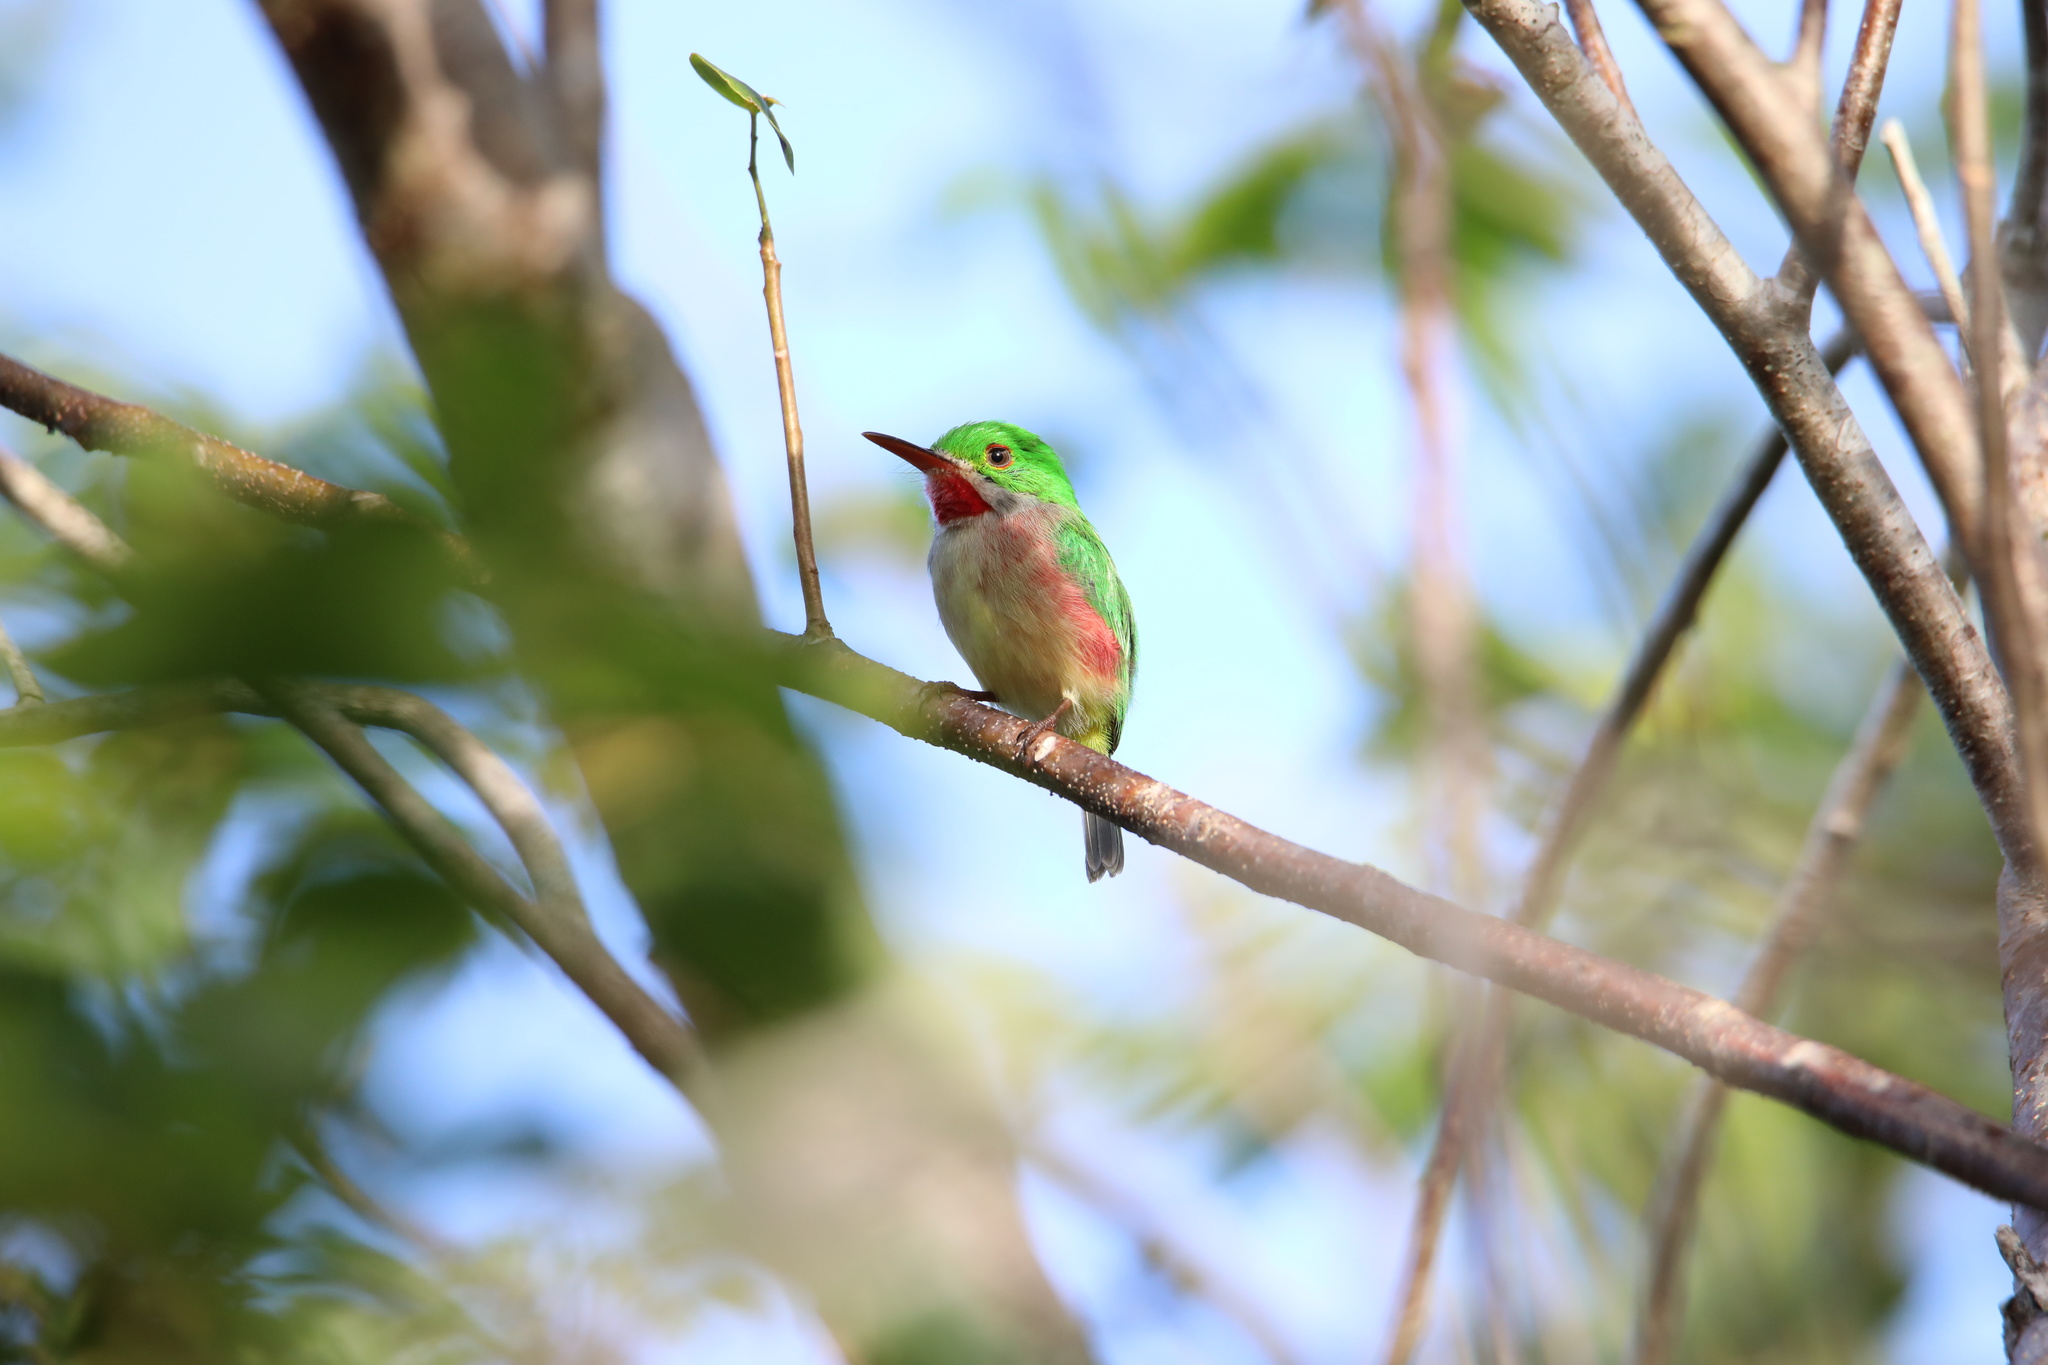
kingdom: Animalia
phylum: Chordata
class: Aves
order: Coraciiformes
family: Todidae
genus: Todus
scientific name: Todus subulatus
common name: Broad-billed tody
